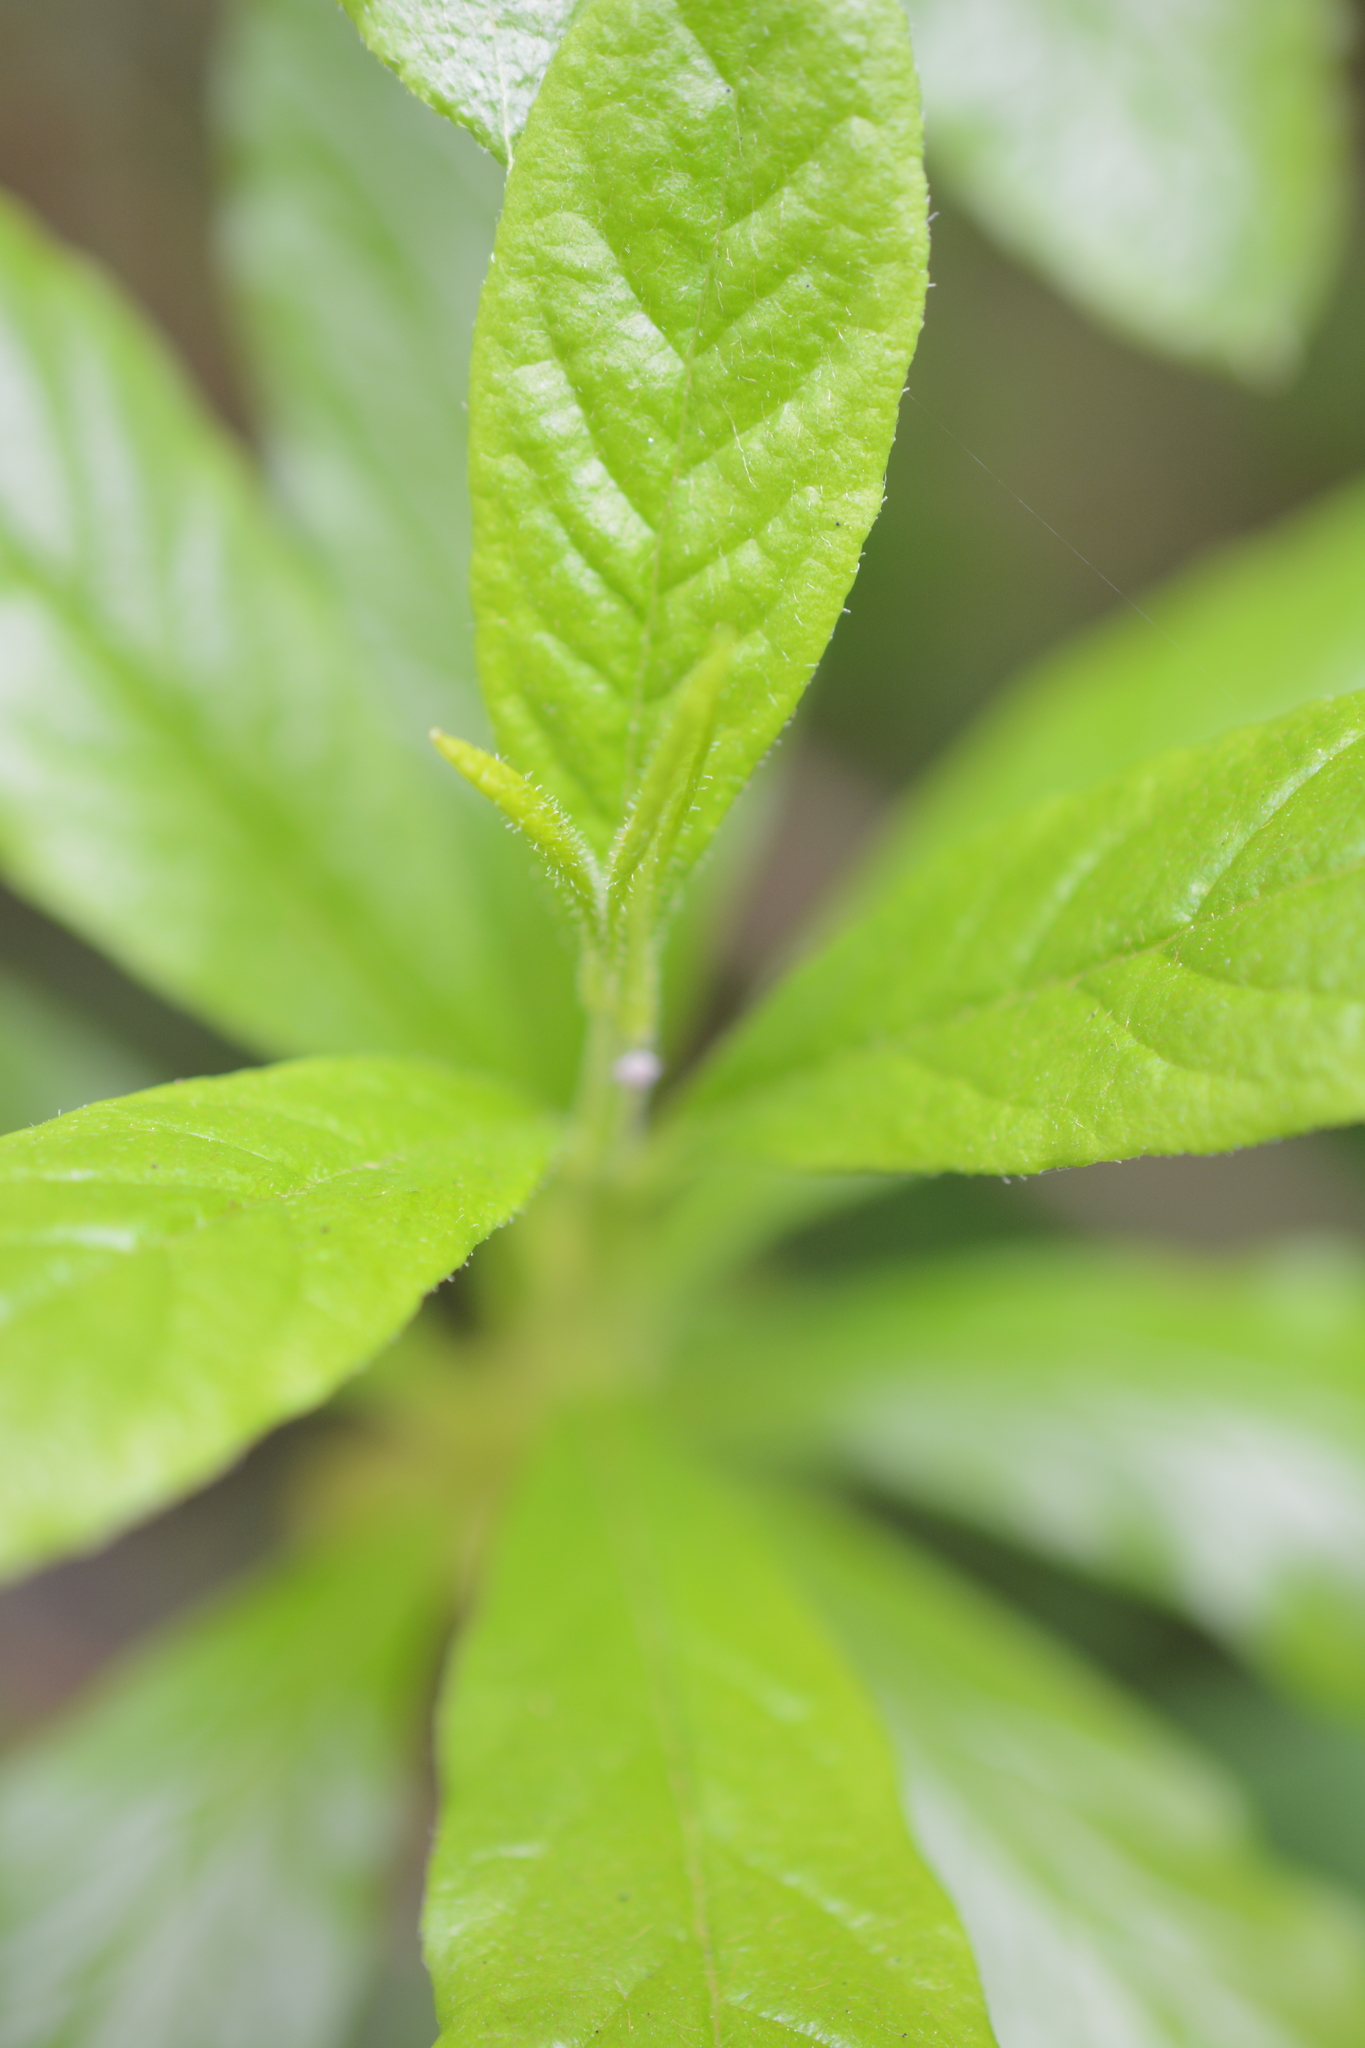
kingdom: Plantae
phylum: Tracheophyta
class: Magnoliopsida
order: Ericales
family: Ericaceae
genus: Rhododendron
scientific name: Rhododendron albiflorum
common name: White rhododendron
